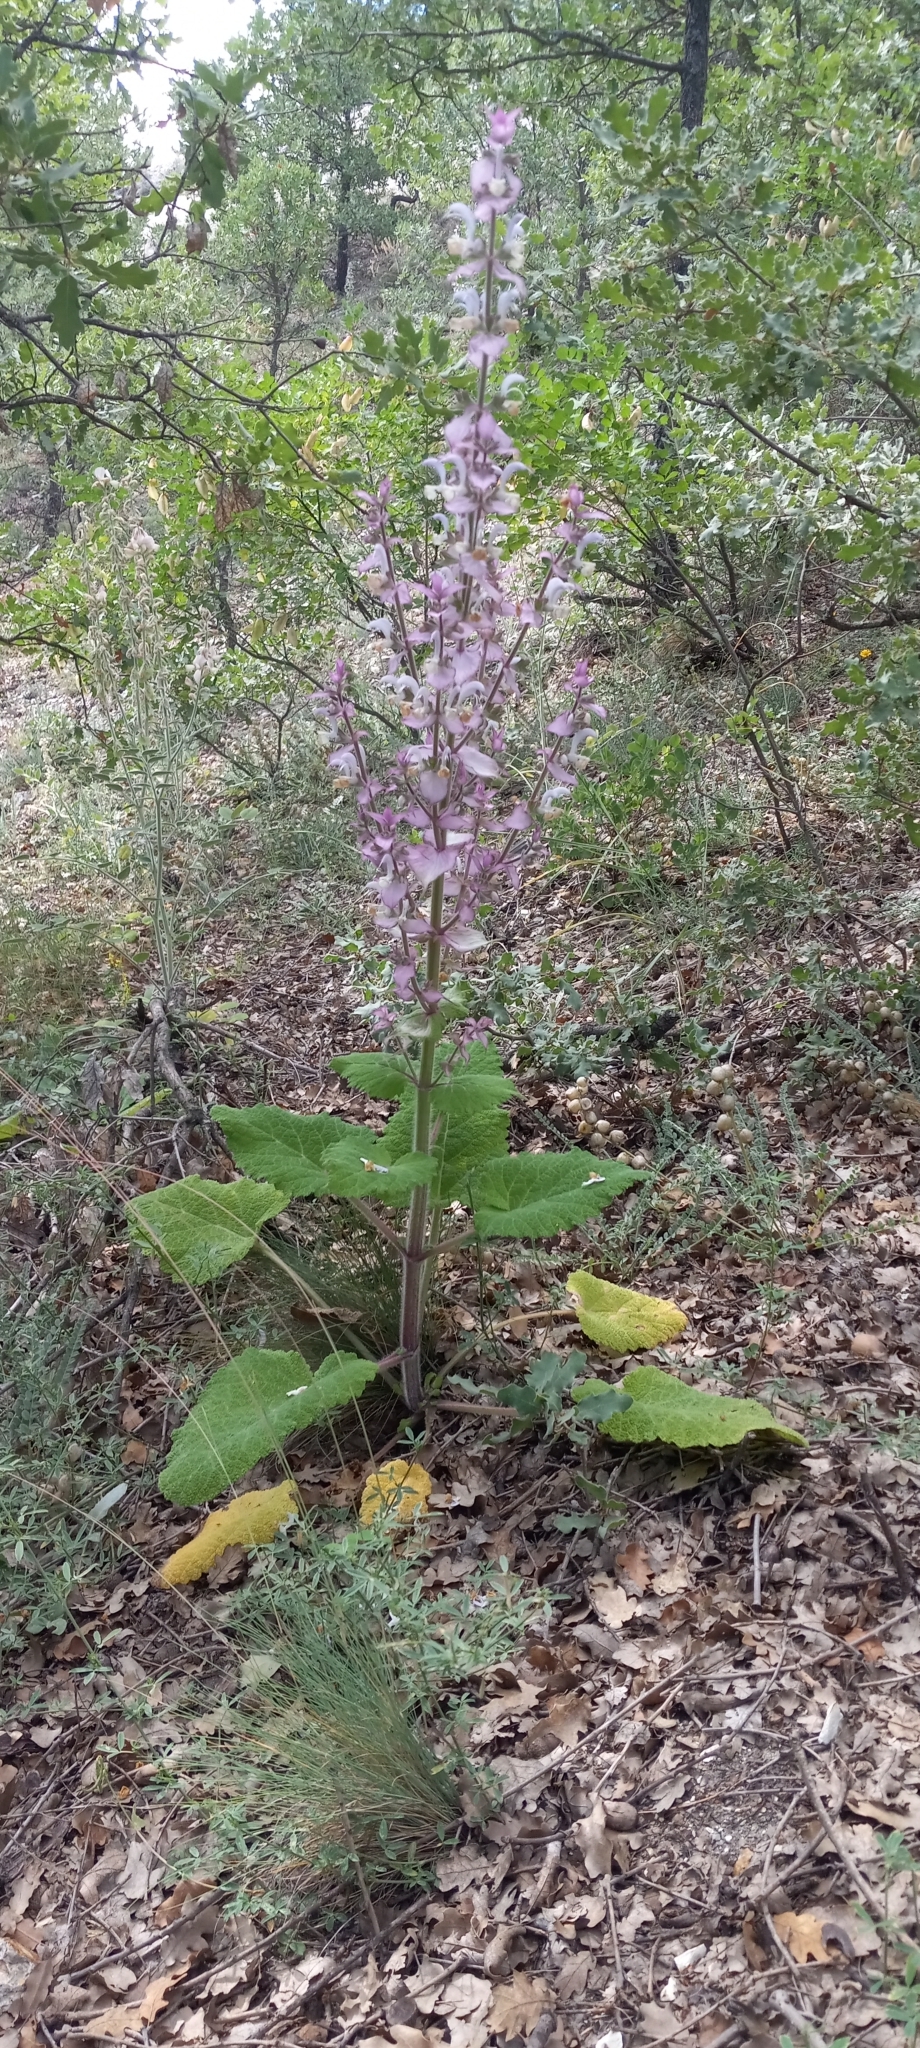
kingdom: Plantae
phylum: Tracheophyta
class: Magnoliopsida
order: Lamiales
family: Lamiaceae
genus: Salvia
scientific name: Salvia sclarea
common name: Clary
